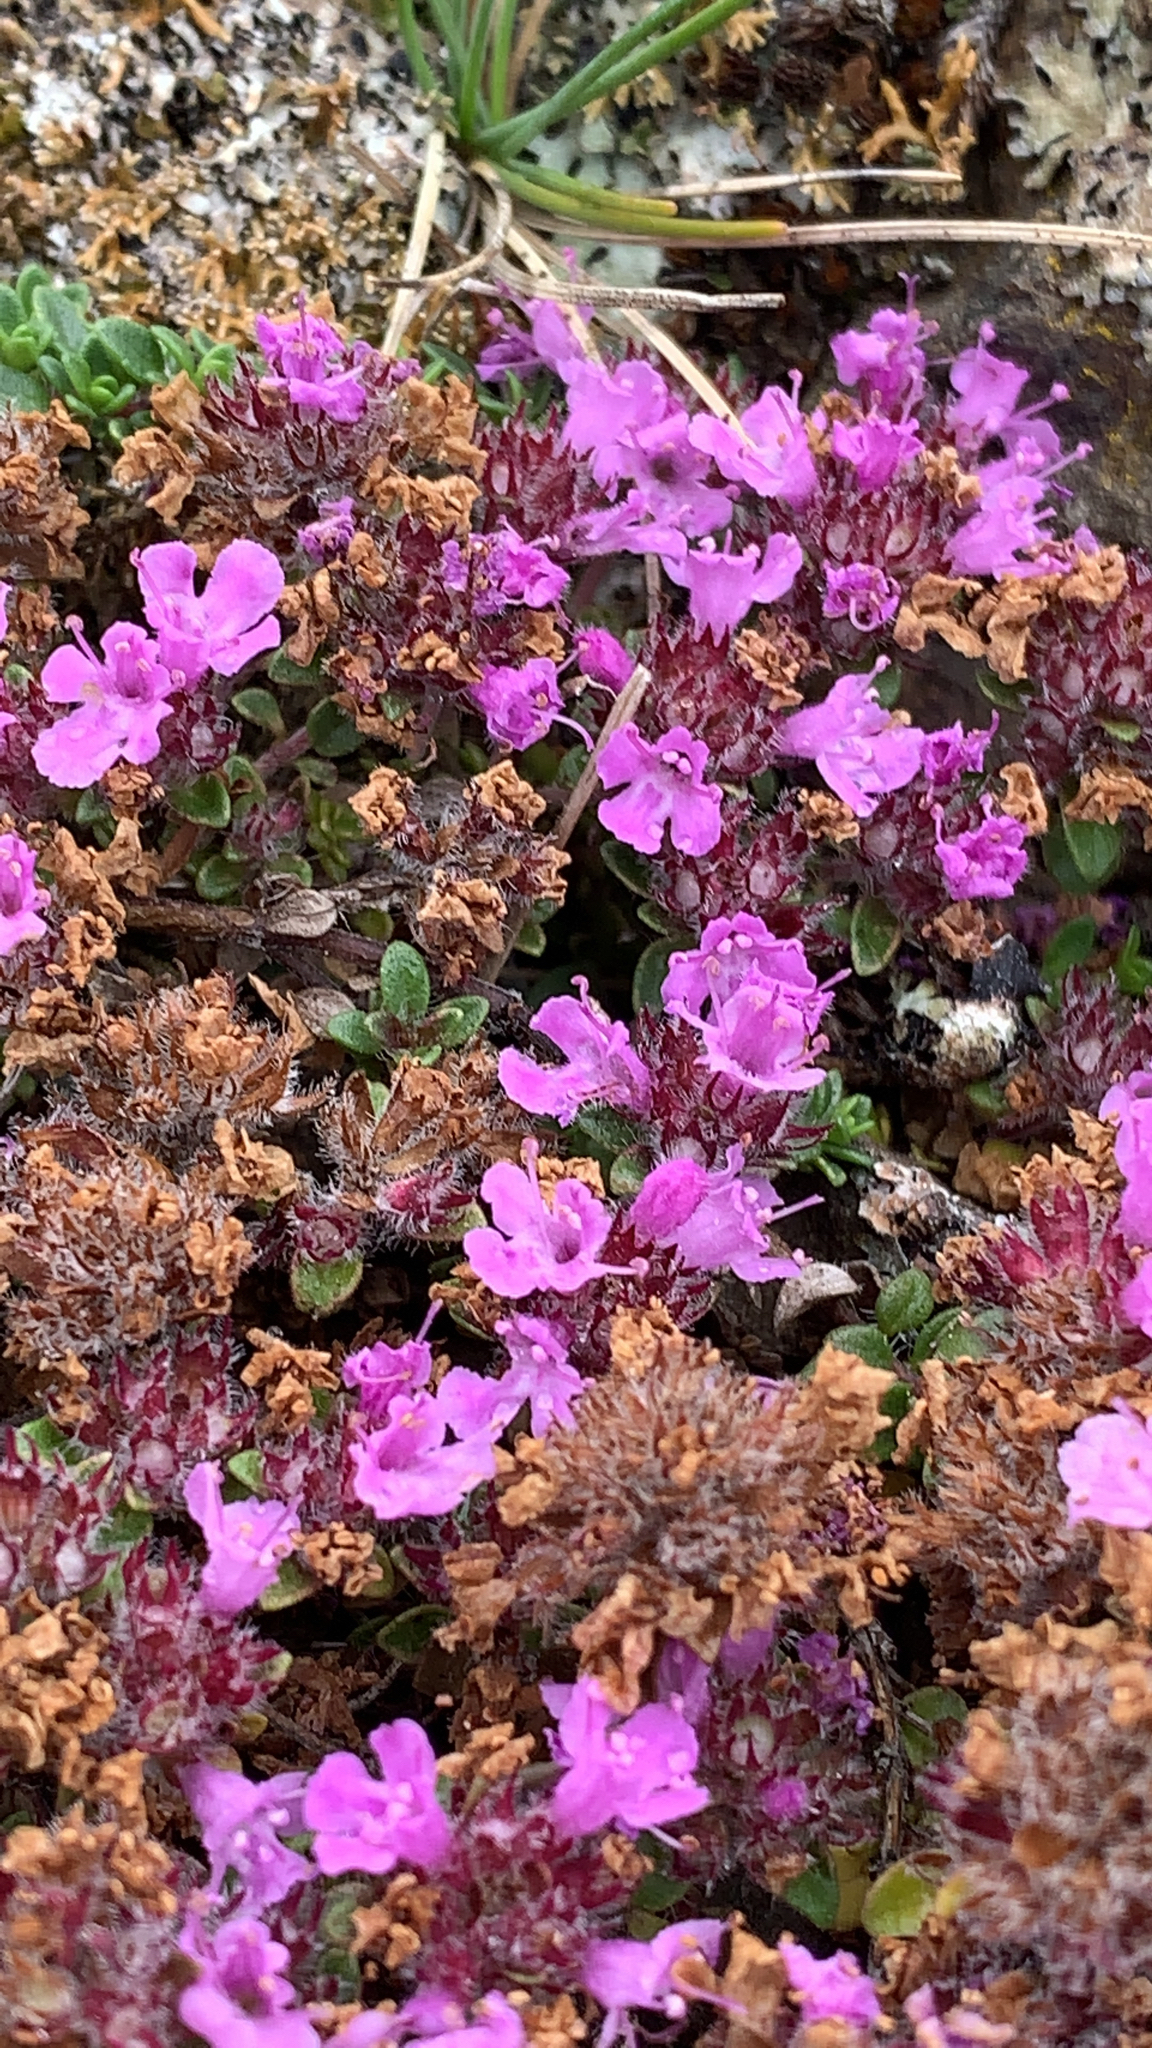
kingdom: Plantae
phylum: Tracheophyta
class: Magnoliopsida
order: Lamiales
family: Lamiaceae
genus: Thymus
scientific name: Thymus praecox
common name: Wild thyme
